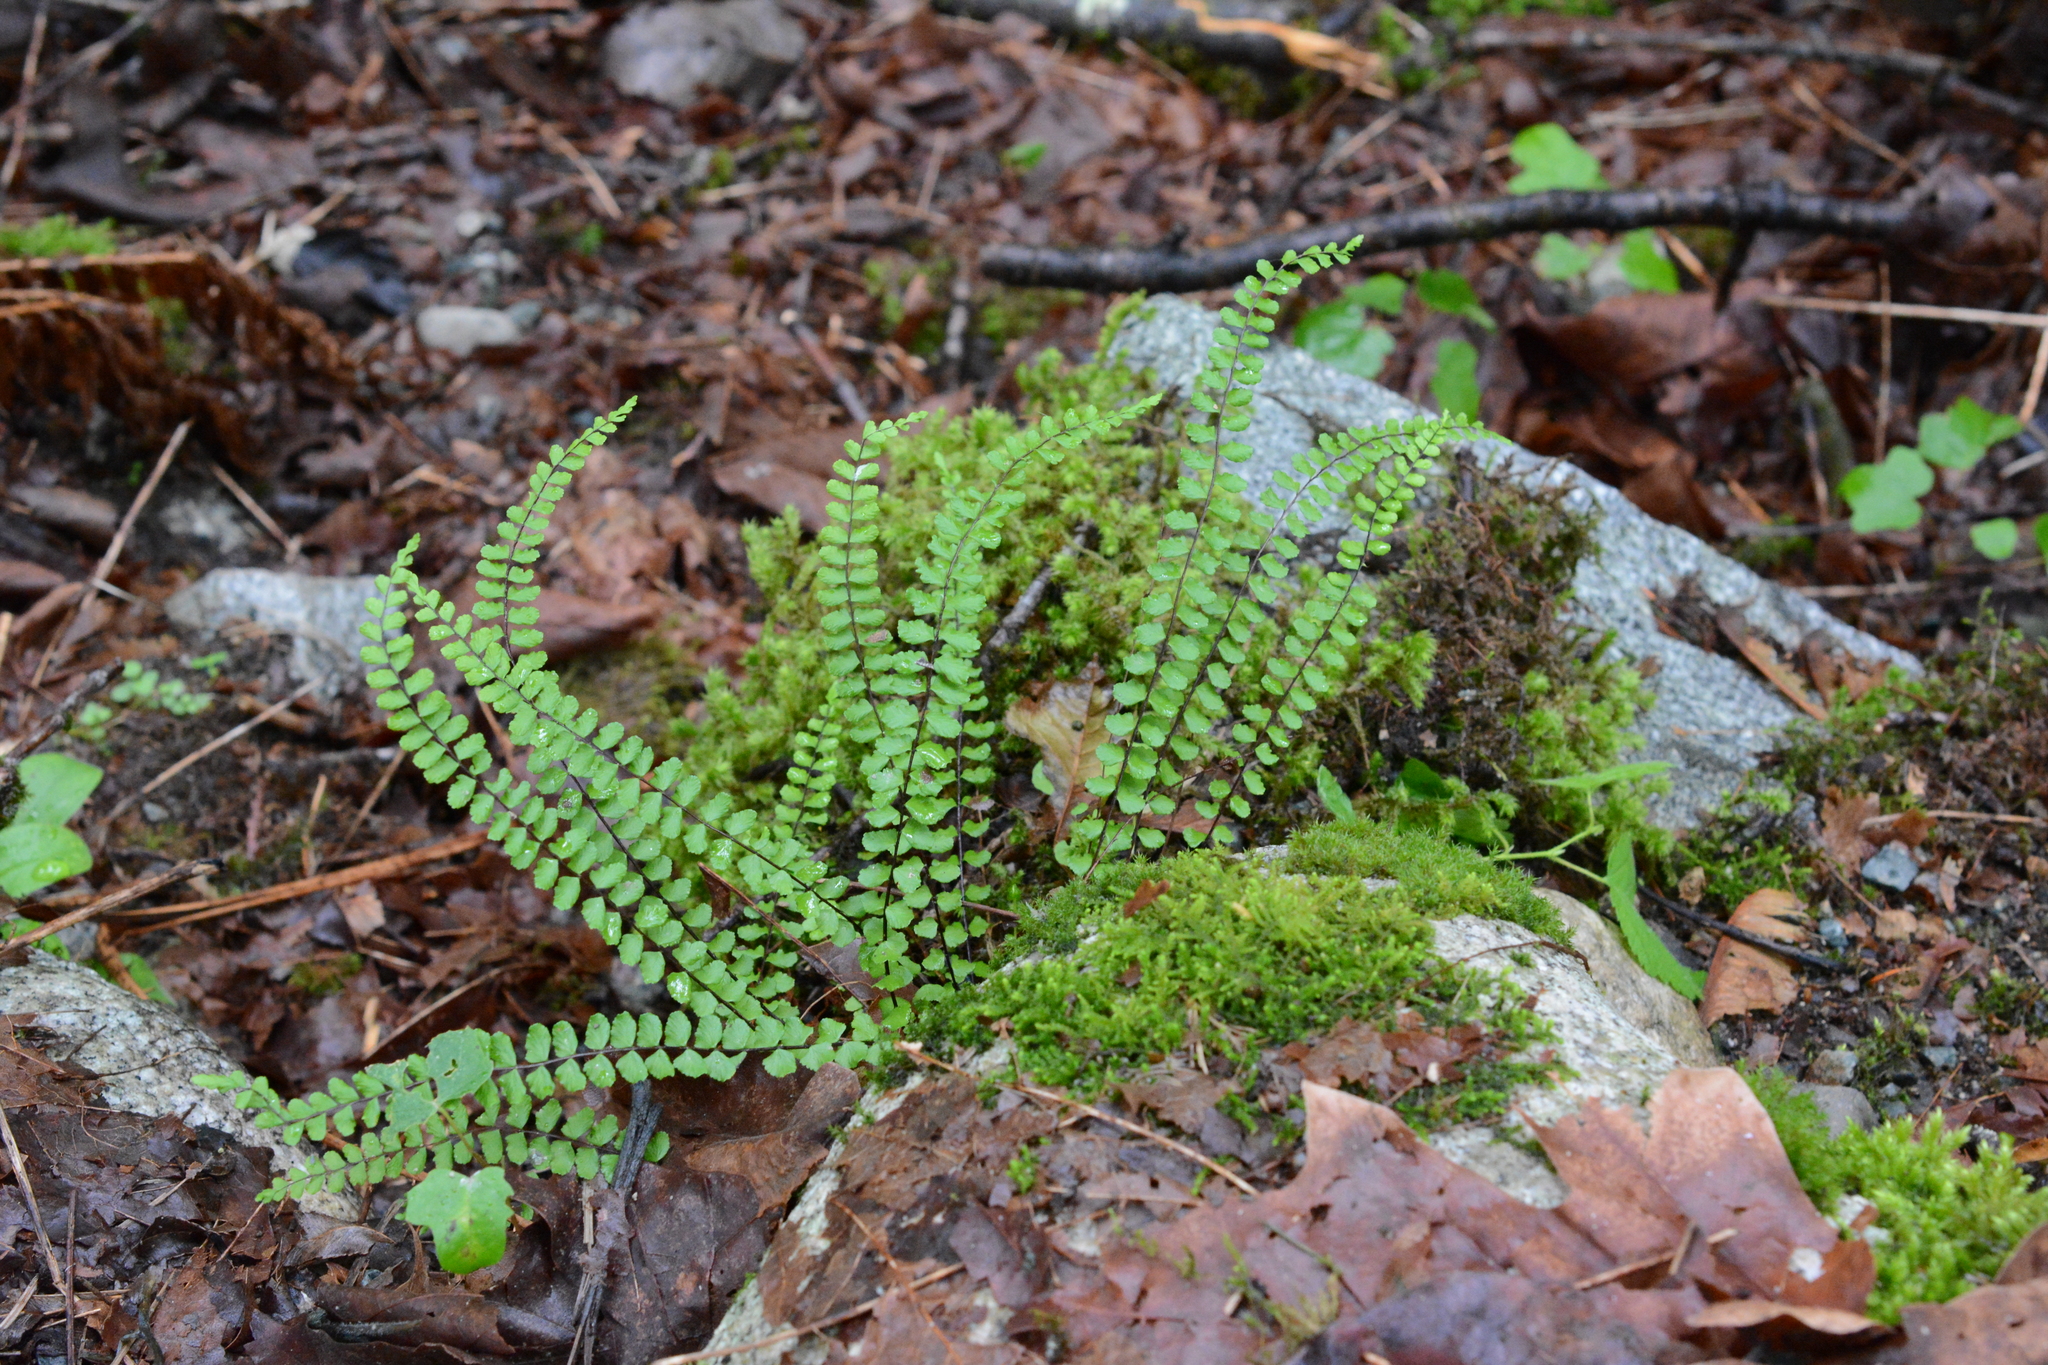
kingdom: Plantae
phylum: Tracheophyta
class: Polypodiopsida
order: Polypodiales
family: Aspleniaceae
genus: Asplenium
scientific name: Asplenium trichomanes
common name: Maidenhair spleenwort
